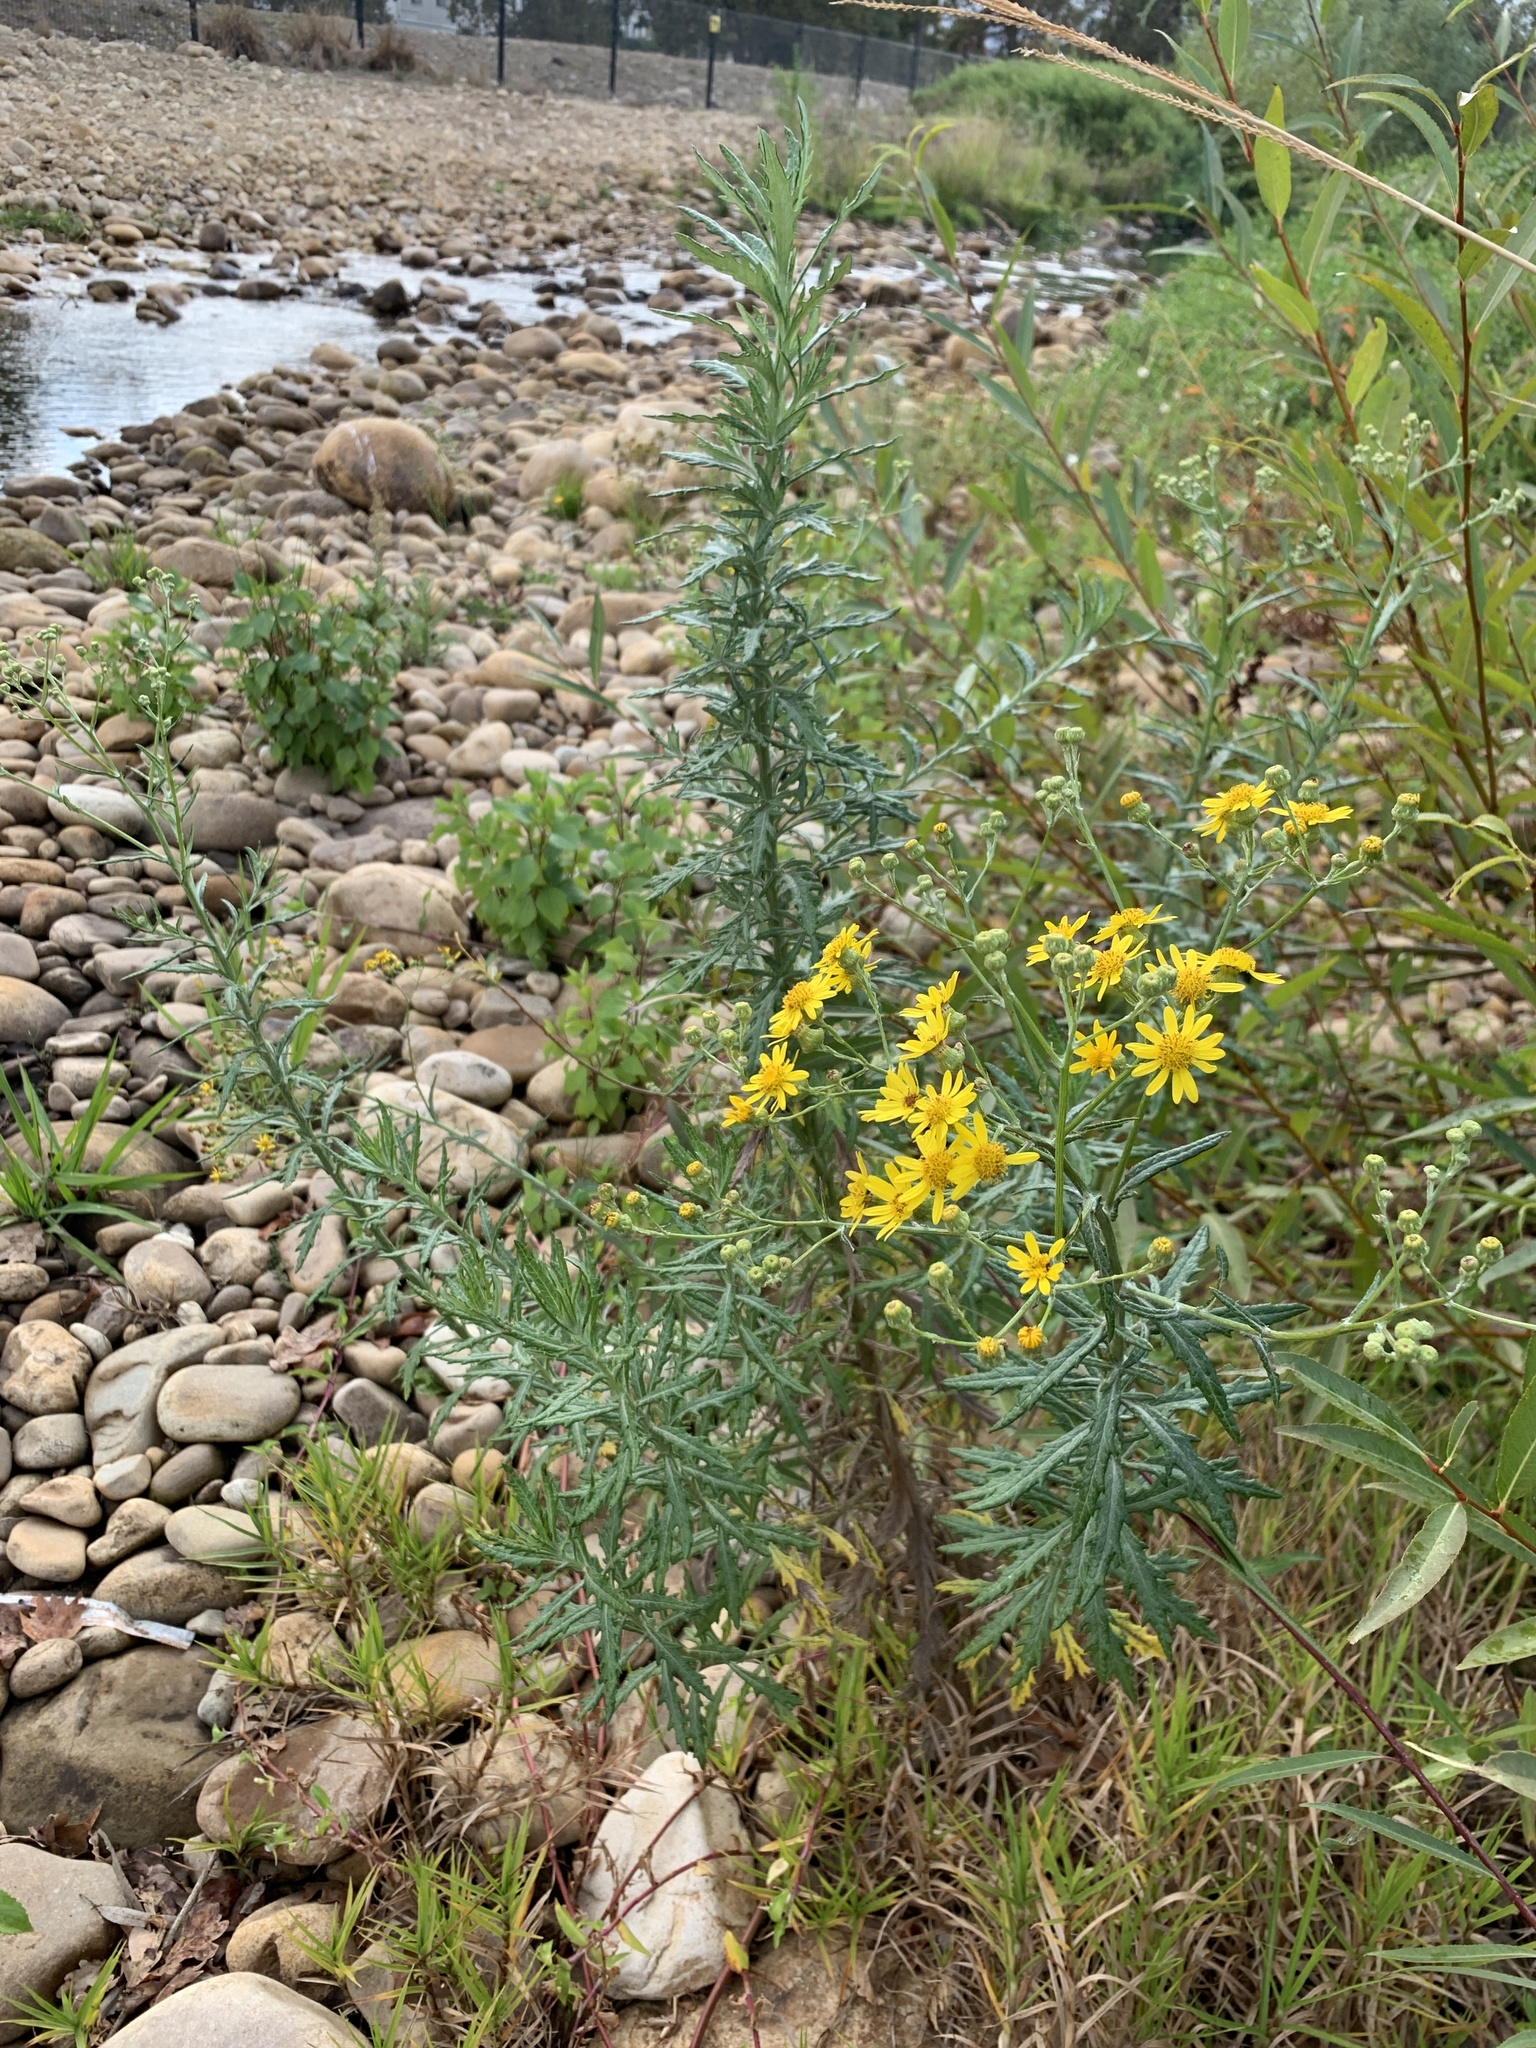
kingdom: Plantae
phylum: Tracheophyta
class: Magnoliopsida
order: Asterales
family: Asteraceae
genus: Senecio
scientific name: Senecio pterophorus
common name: Shoddy ragwort
